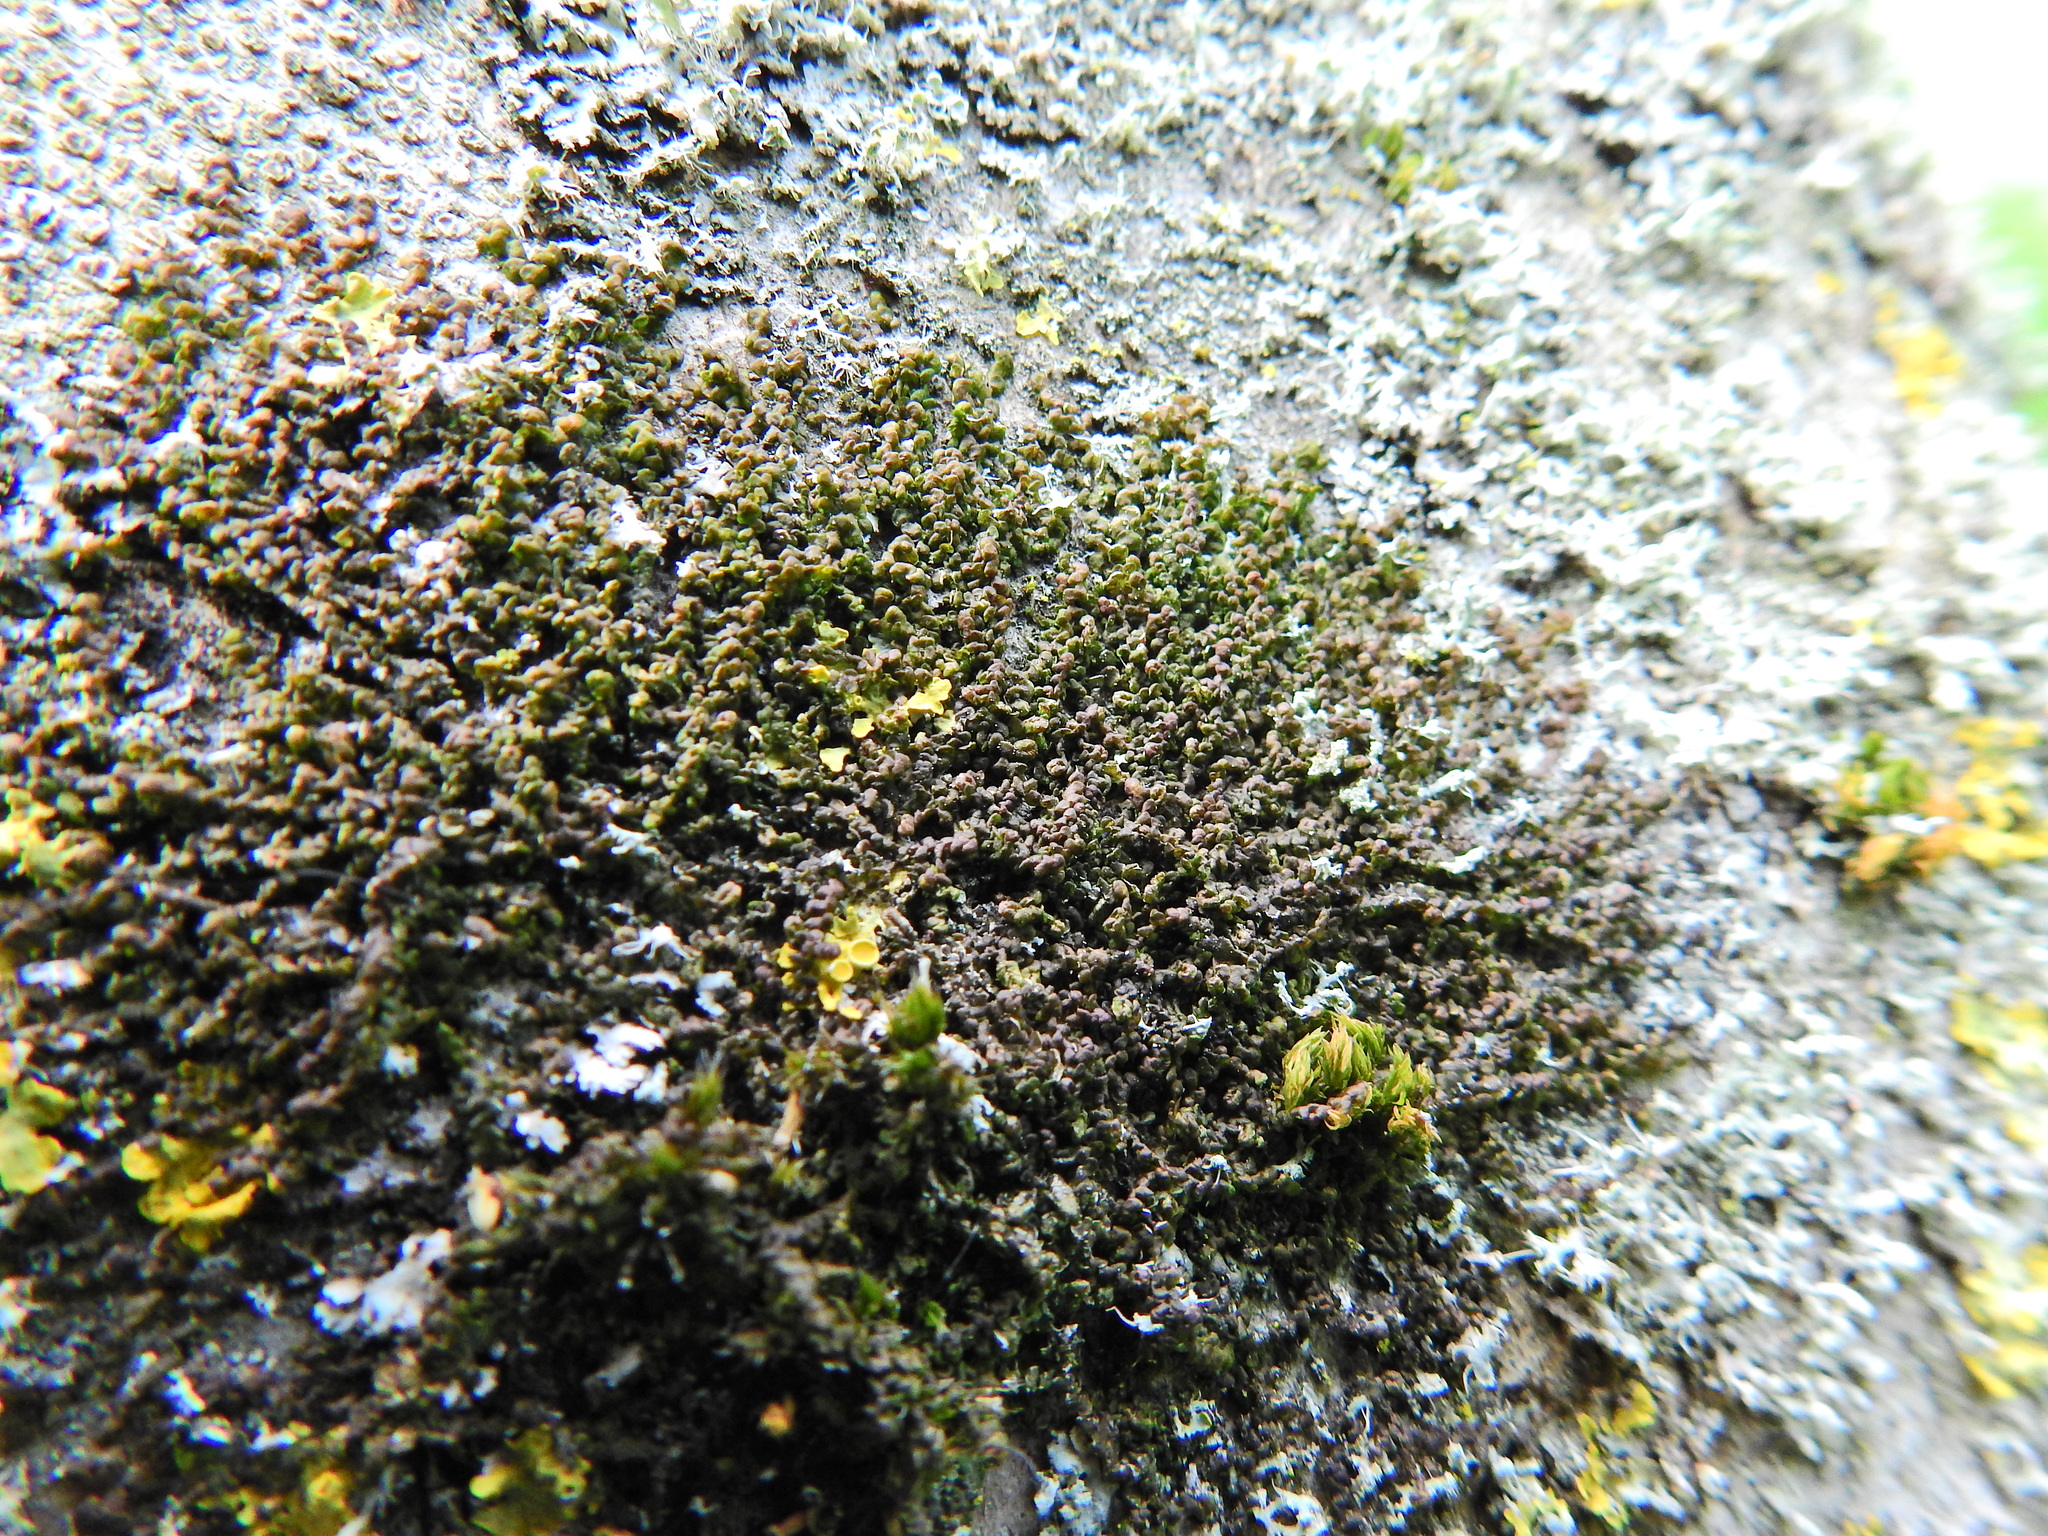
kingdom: Plantae
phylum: Marchantiophyta
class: Jungermanniopsida
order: Porellales
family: Frullaniaceae
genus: Frullania
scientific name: Frullania dilatata
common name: Dilated scalewort
